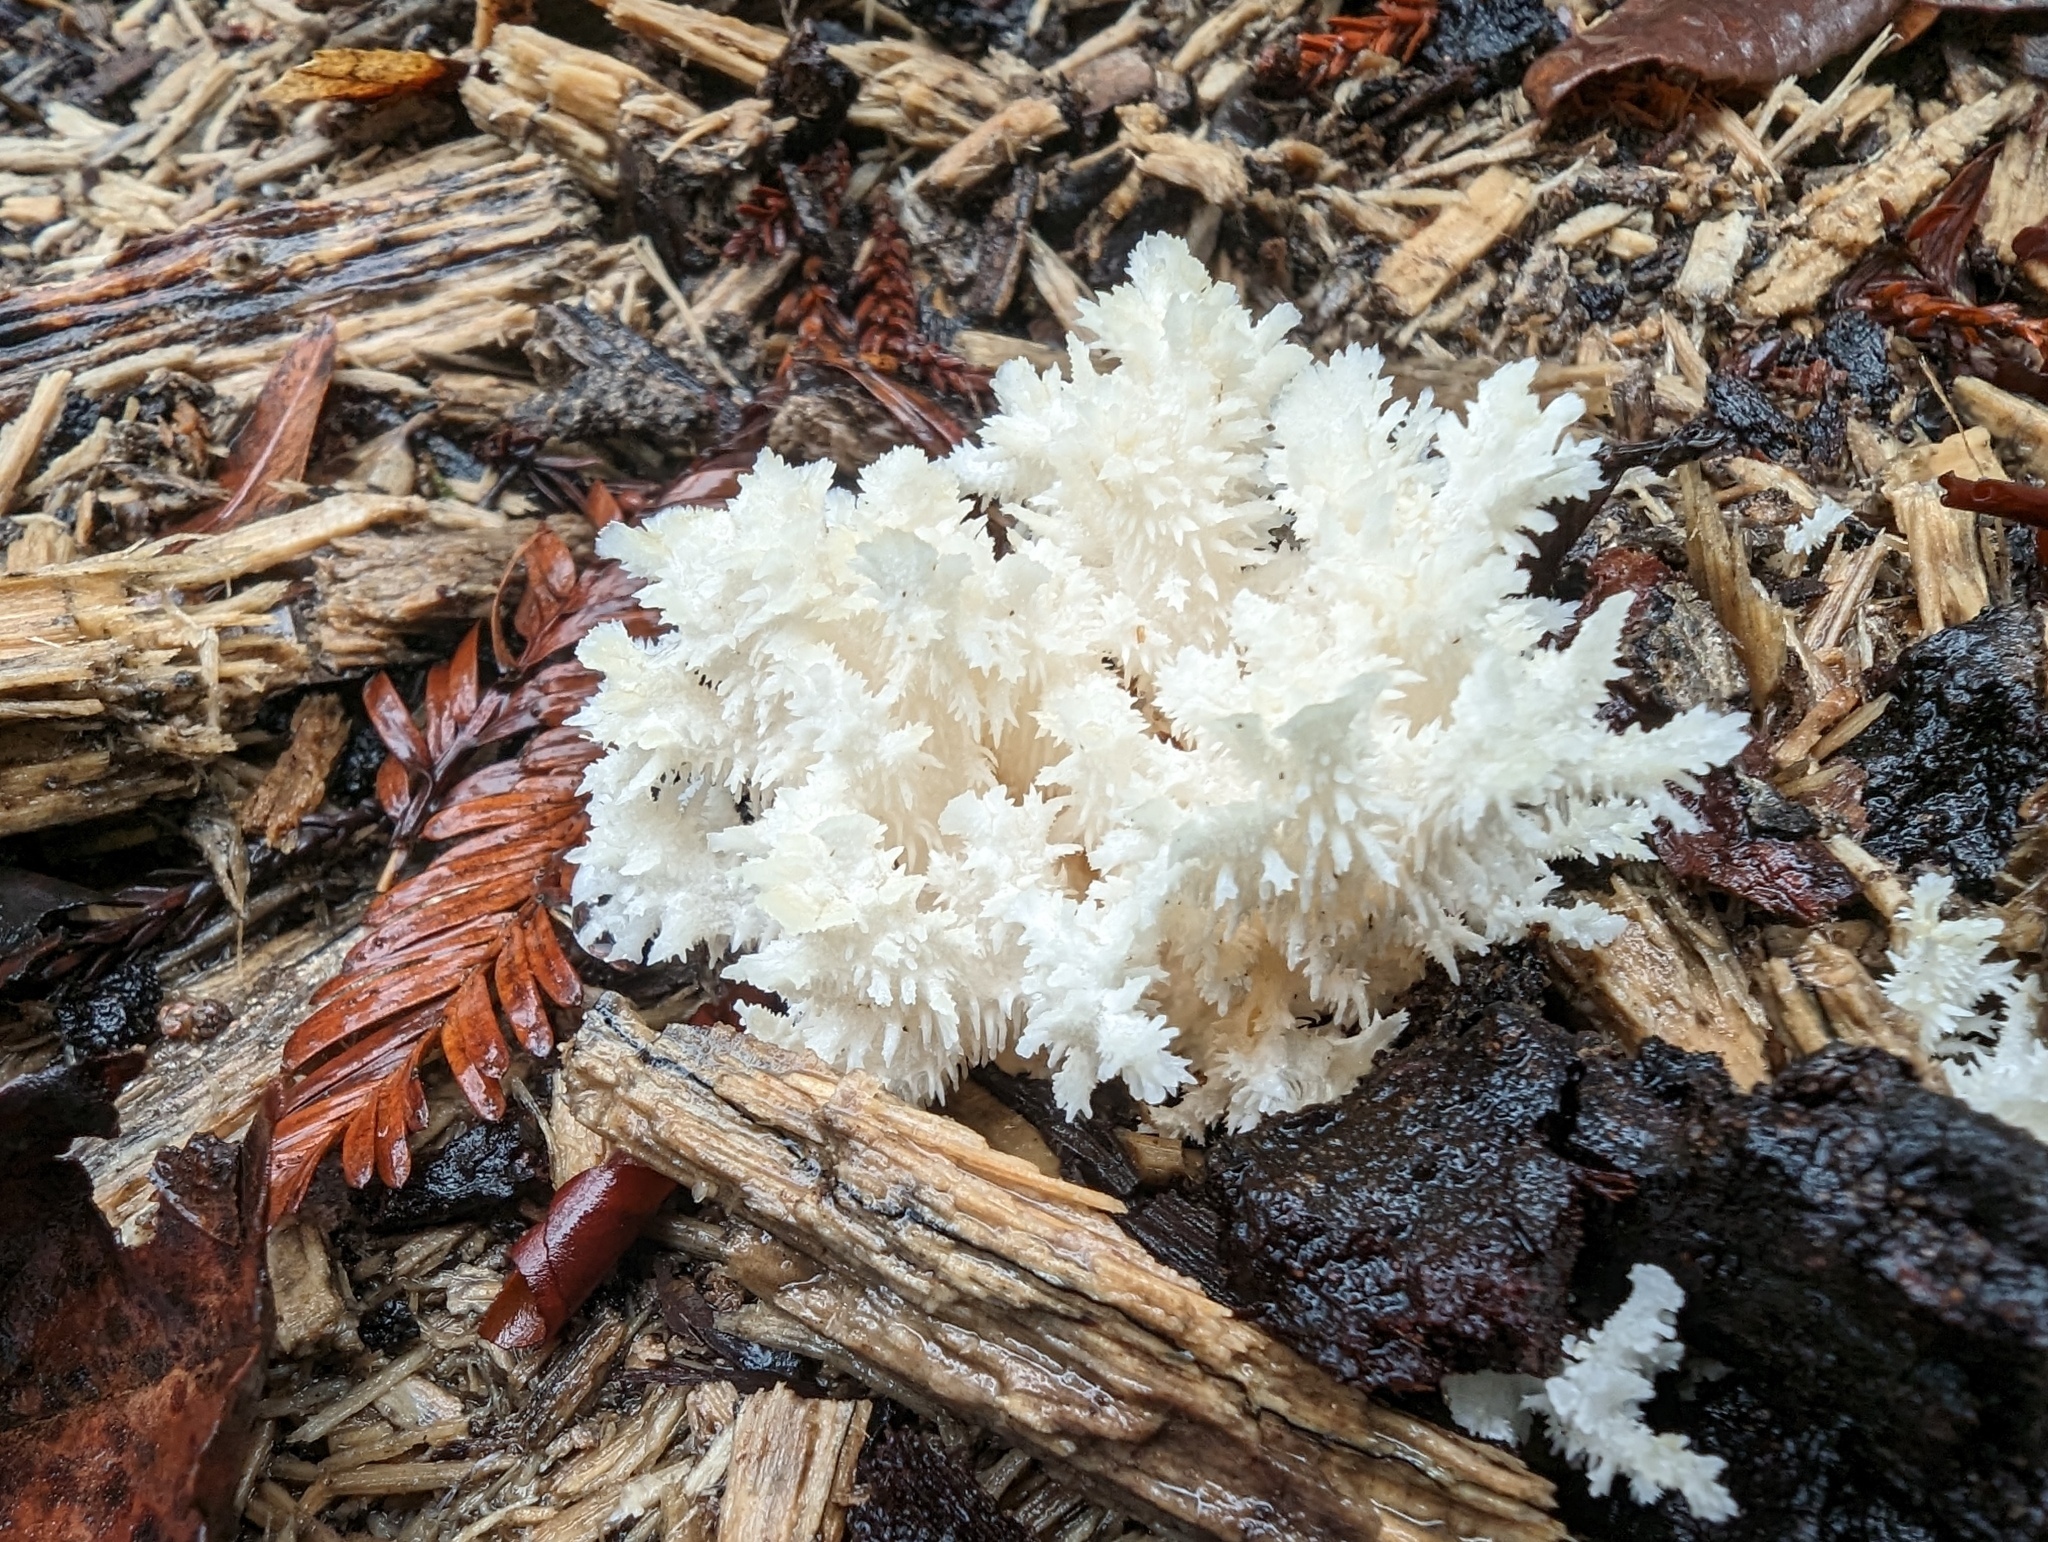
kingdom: Fungi
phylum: Basidiomycota
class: Agaricomycetes
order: Russulales
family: Hericiaceae
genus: Hericium
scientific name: Hericium coralloides
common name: Coral tooth
